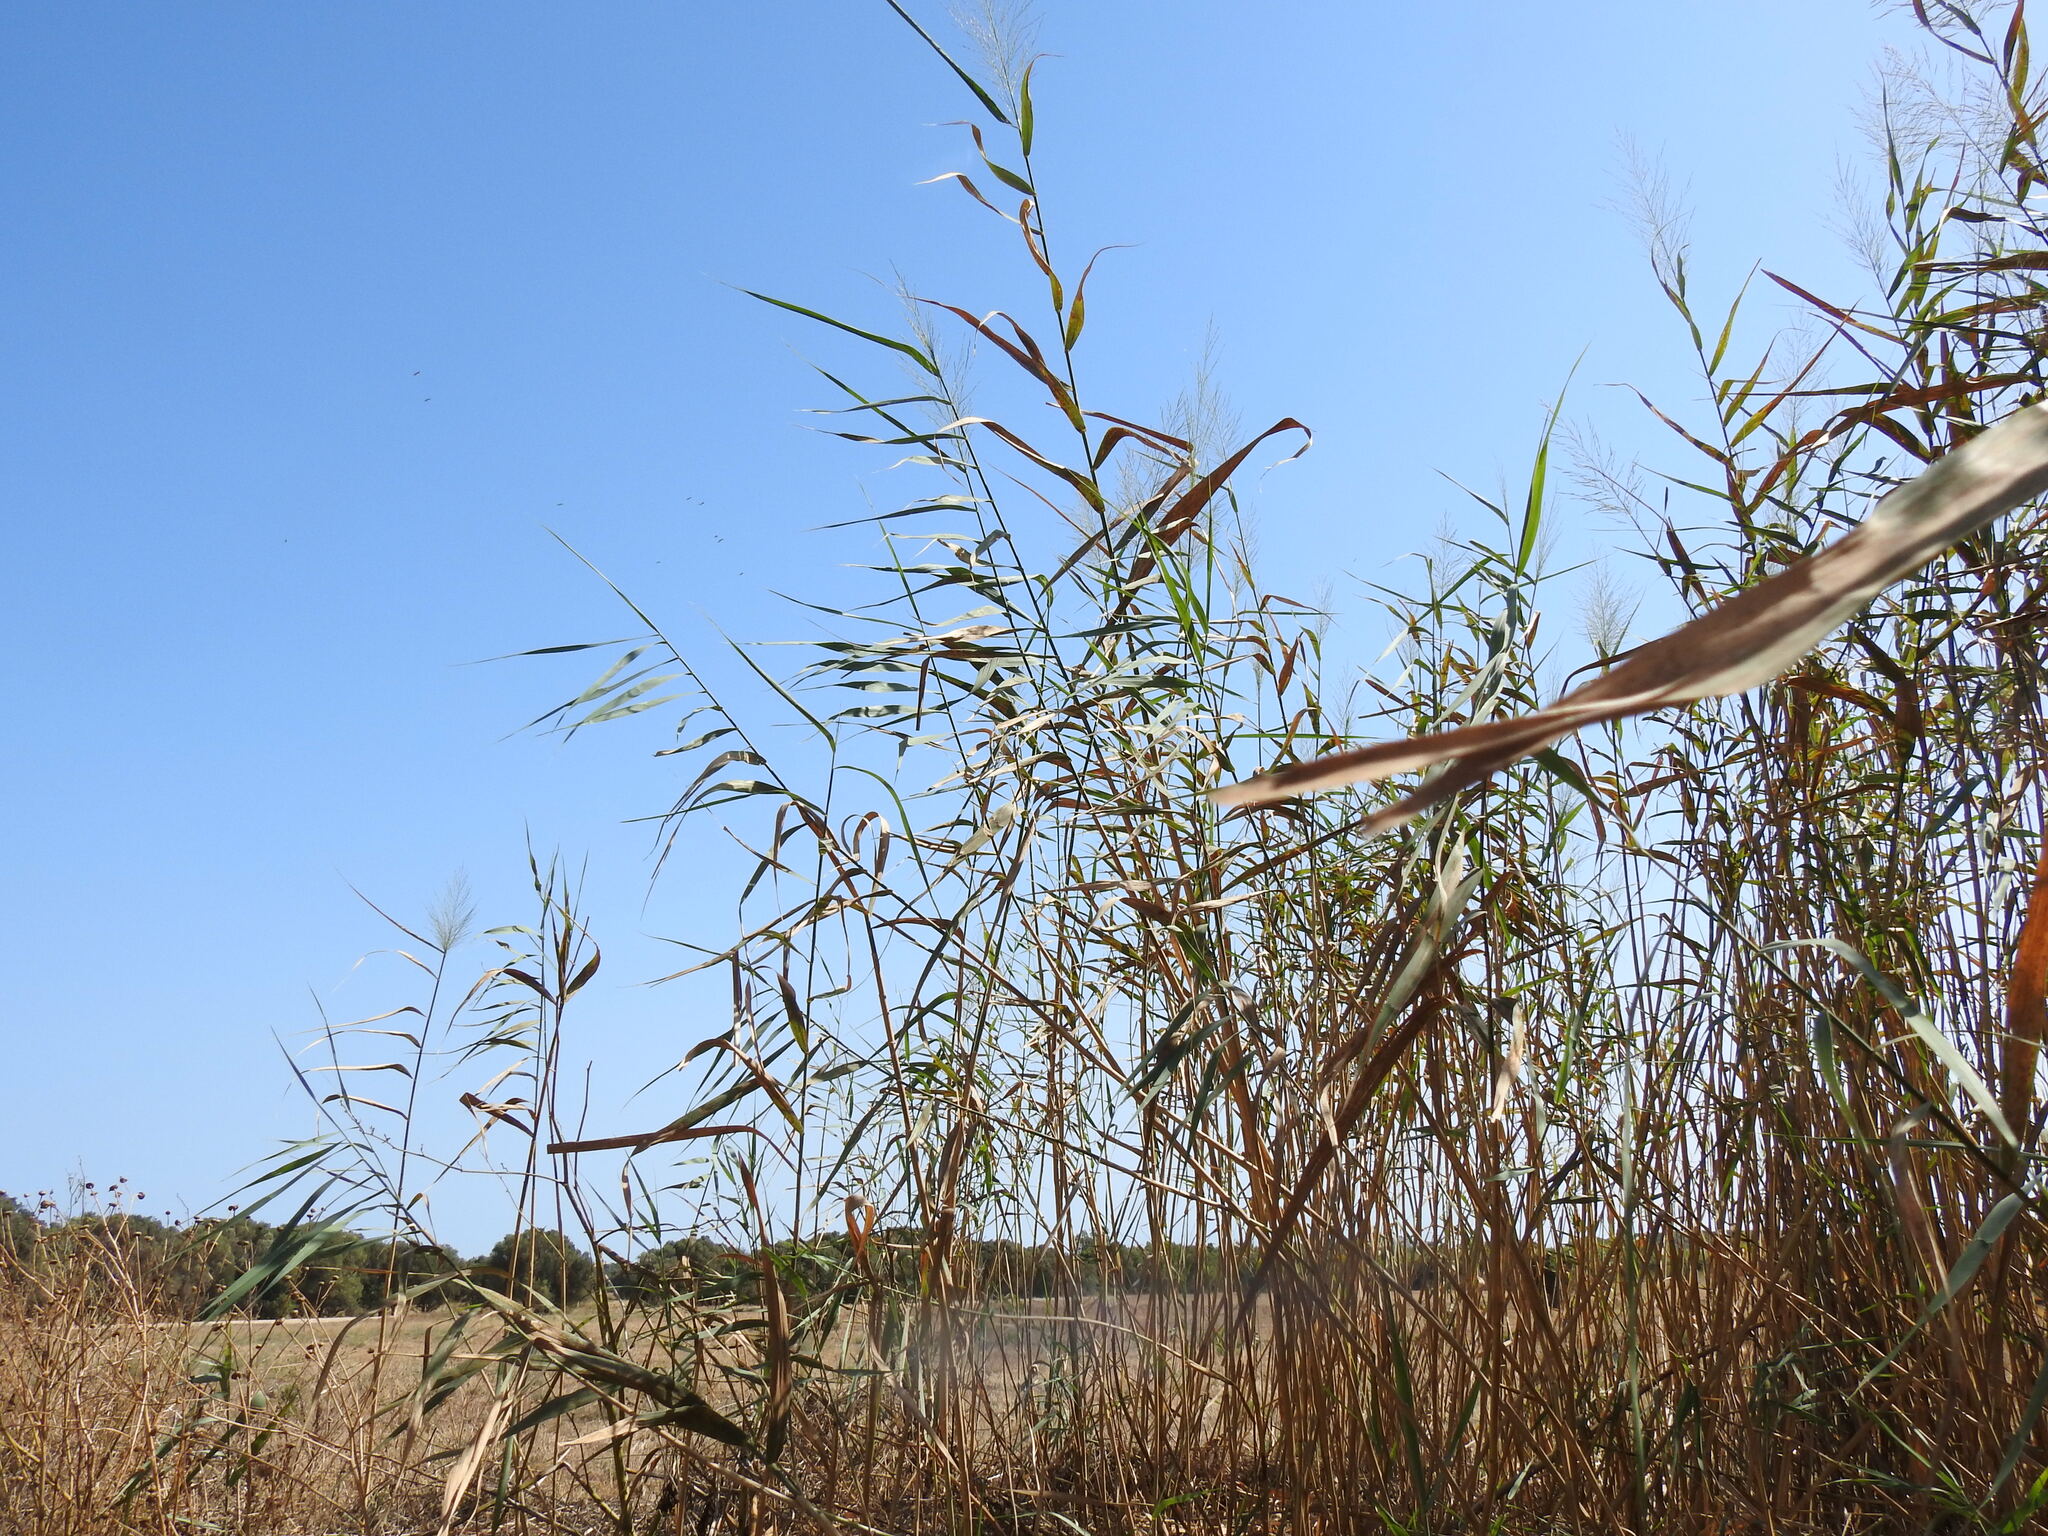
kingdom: Plantae
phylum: Tracheophyta
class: Liliopsida
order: Poales
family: Poaceae
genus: Phragmites
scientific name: Phragmites australis
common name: Common reed
